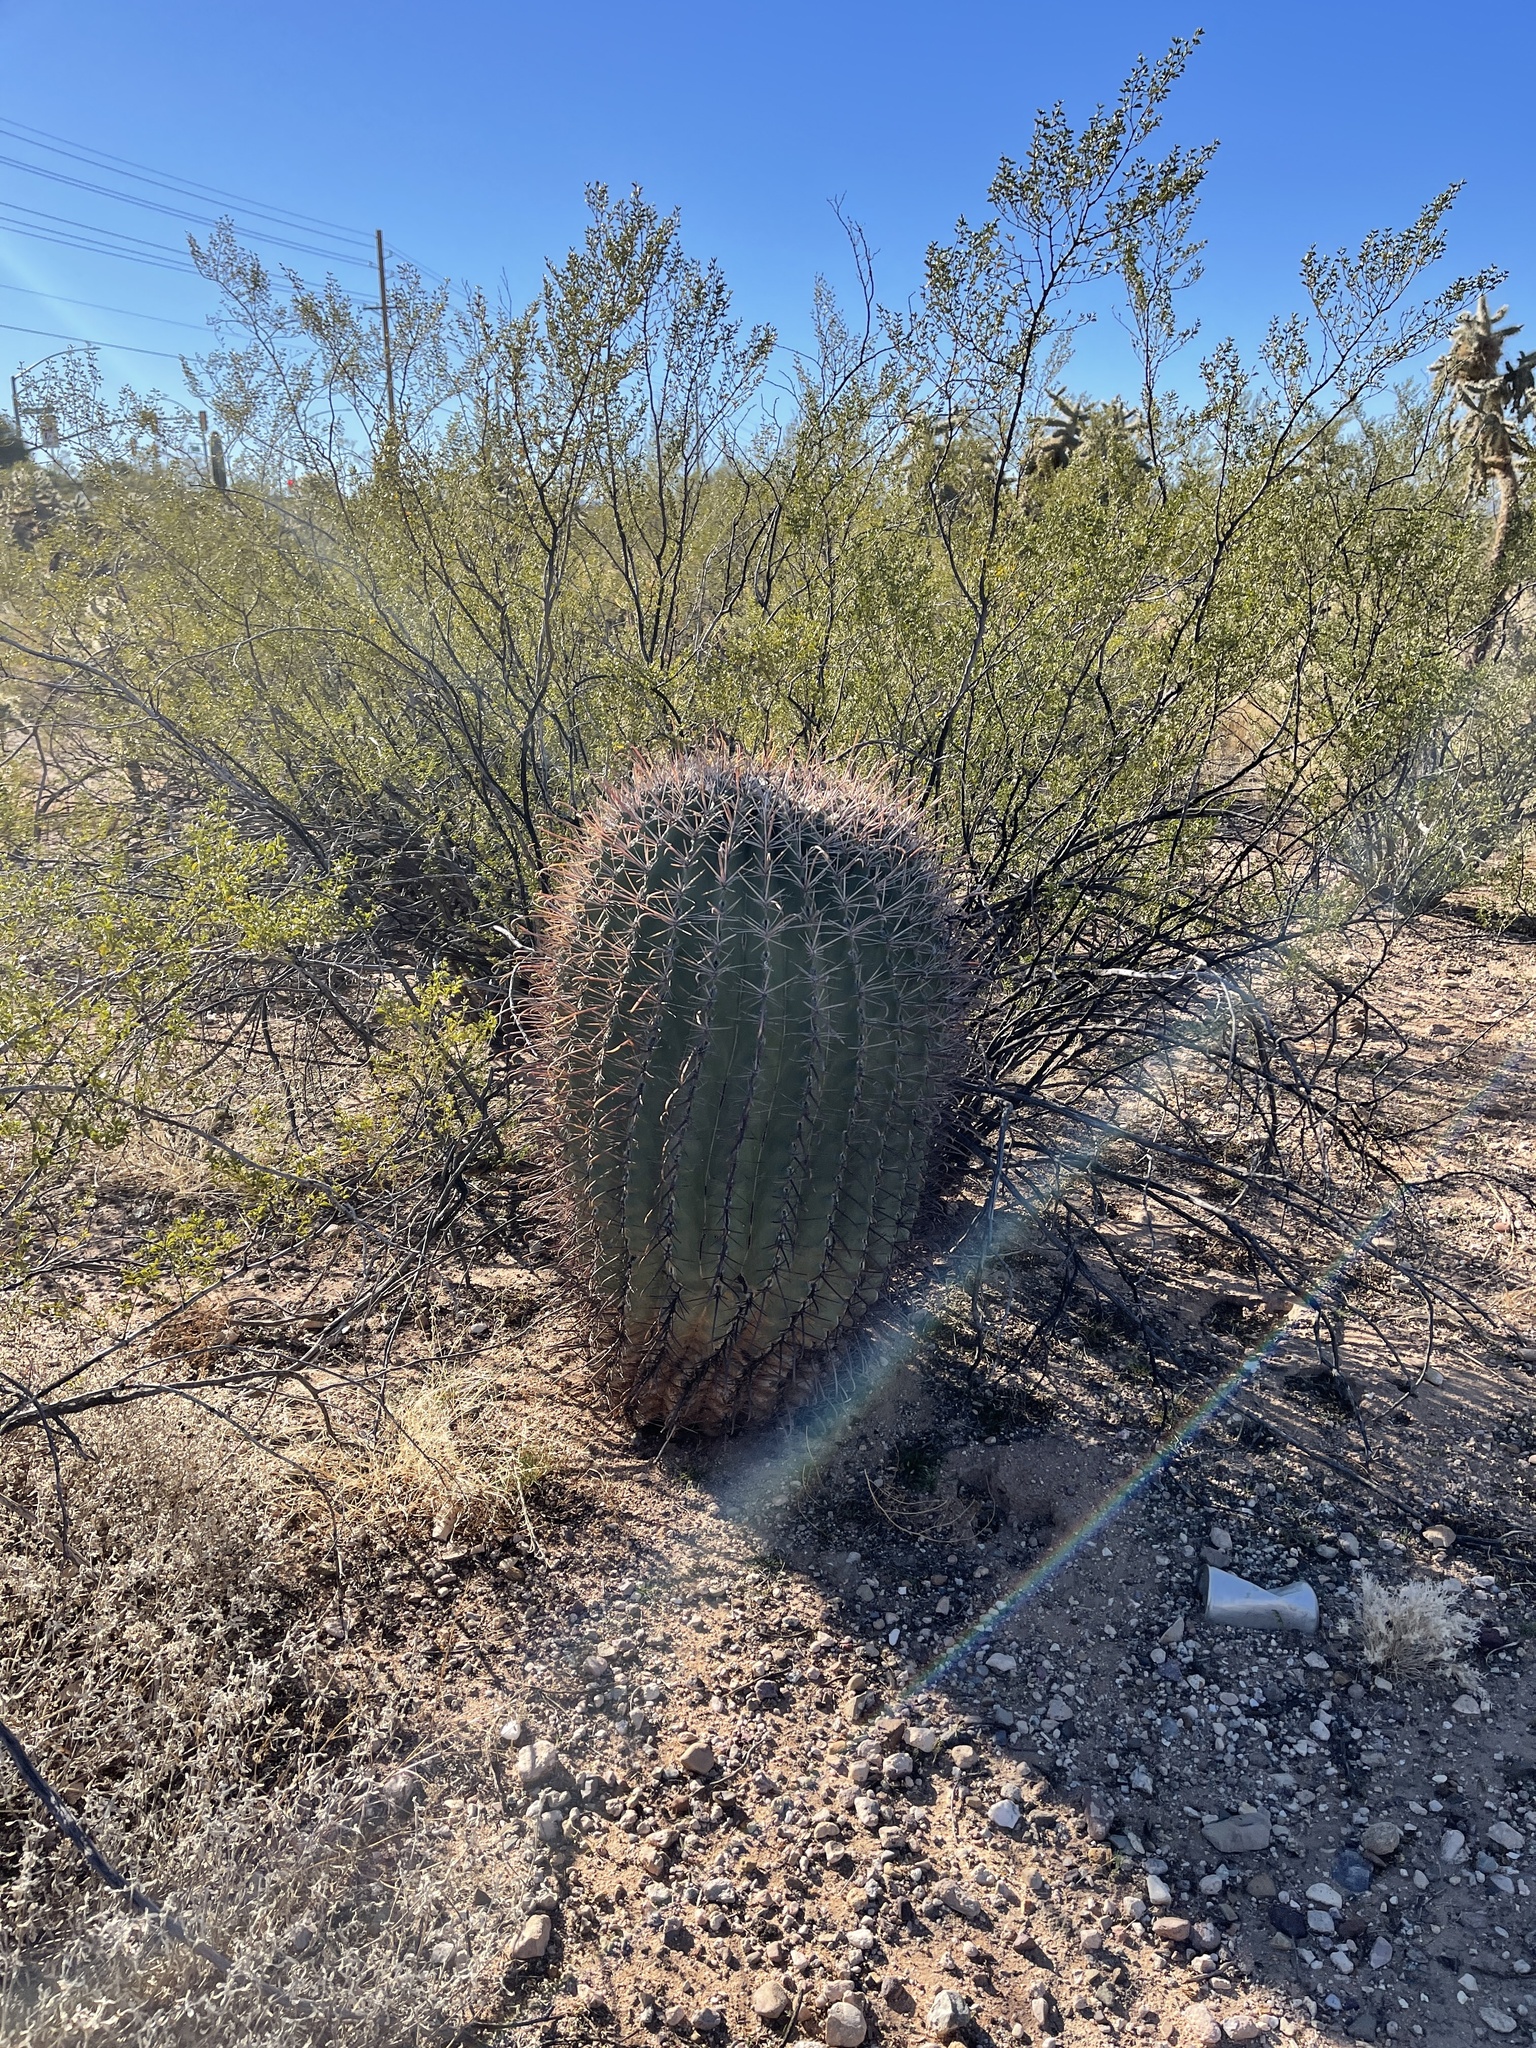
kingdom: Plantae
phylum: Tracheophyta
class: Magnoliopsida
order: Caryophyllales
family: Cactaceae
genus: Ferocactus
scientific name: Ferocactus wislizeni
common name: Candy barrel cactus
